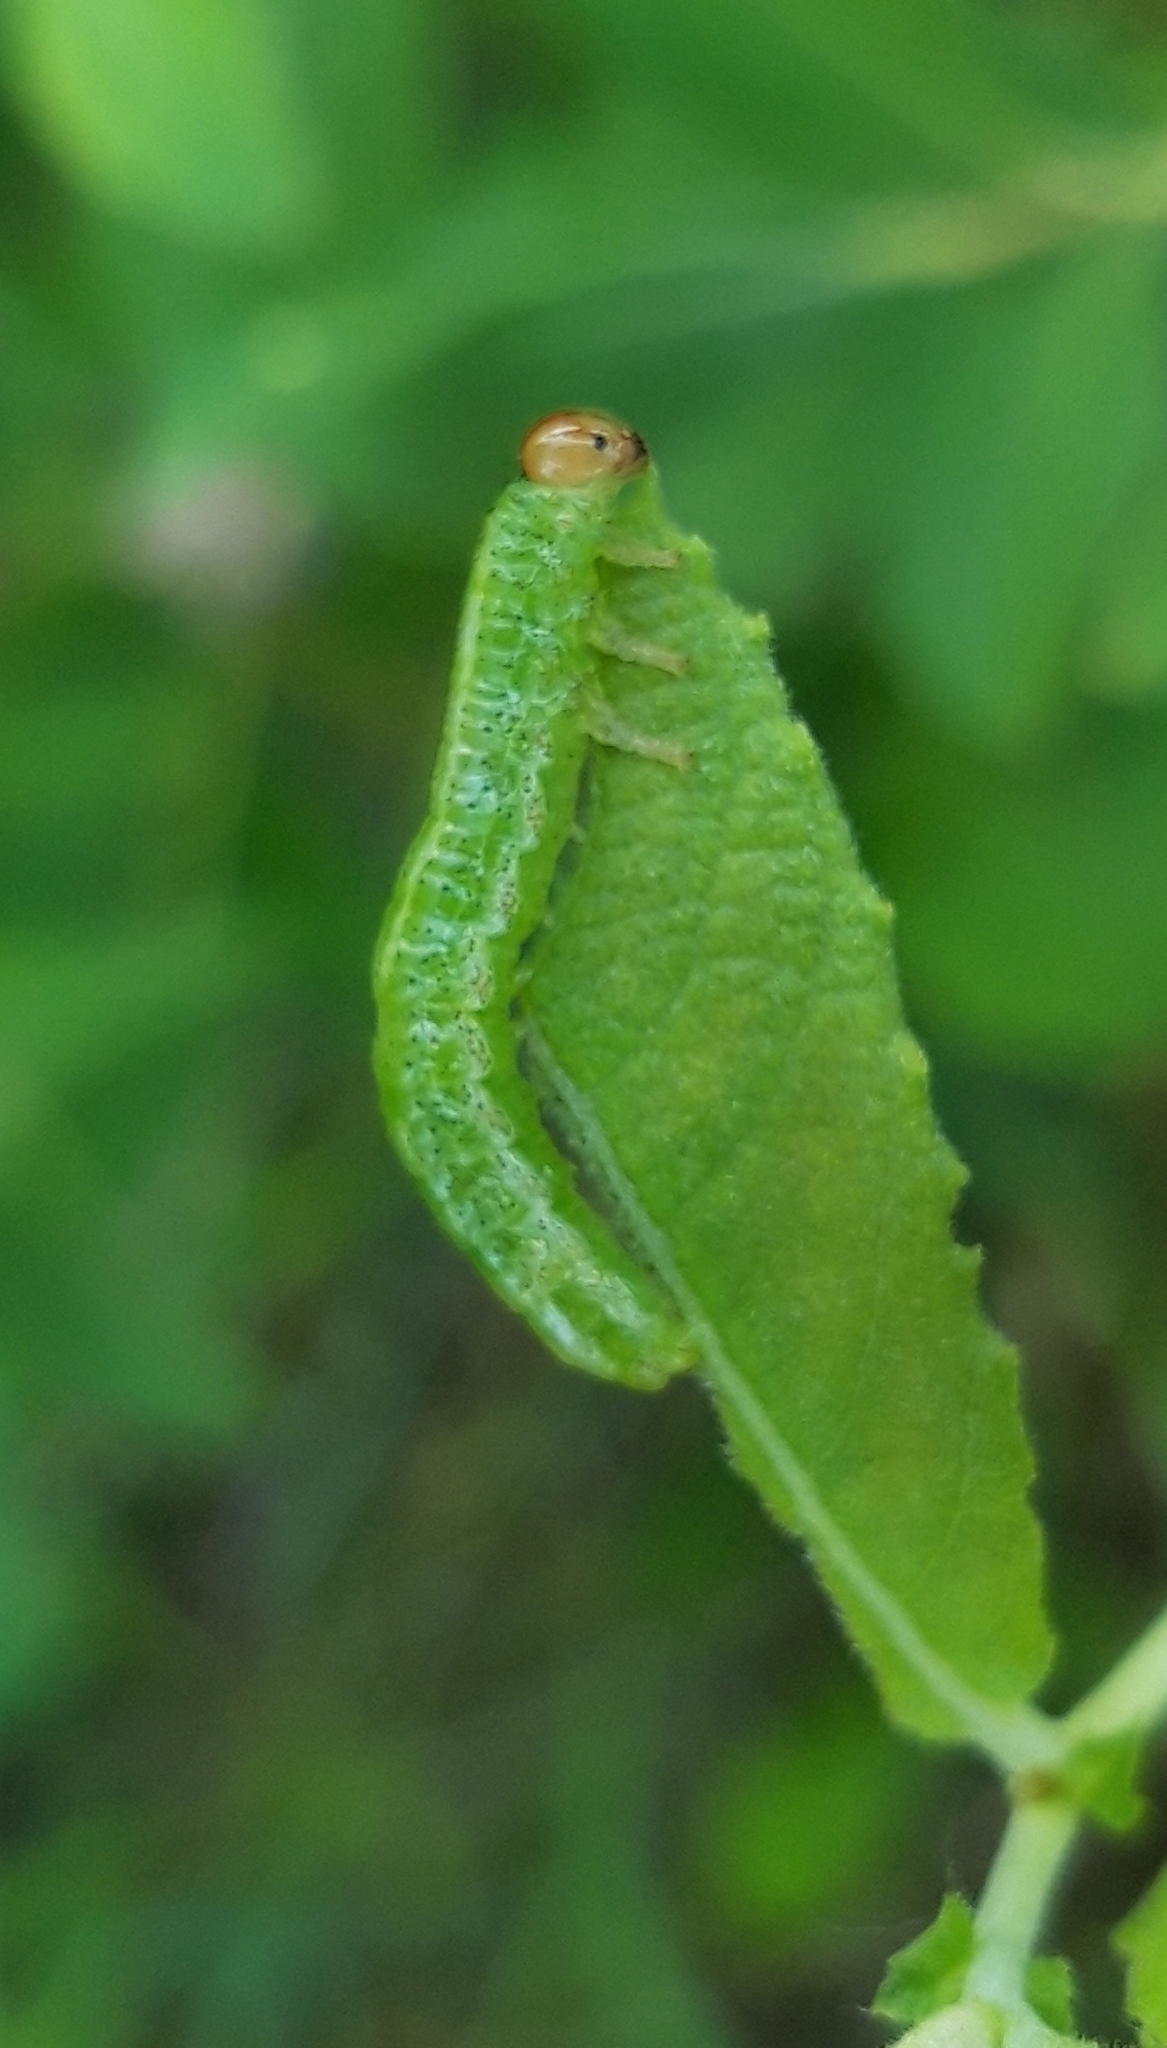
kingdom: Animalia
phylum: Arthropoda
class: Insecta
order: Hymenoptera
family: Argidae
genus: Arge
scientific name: Arge ustulata
